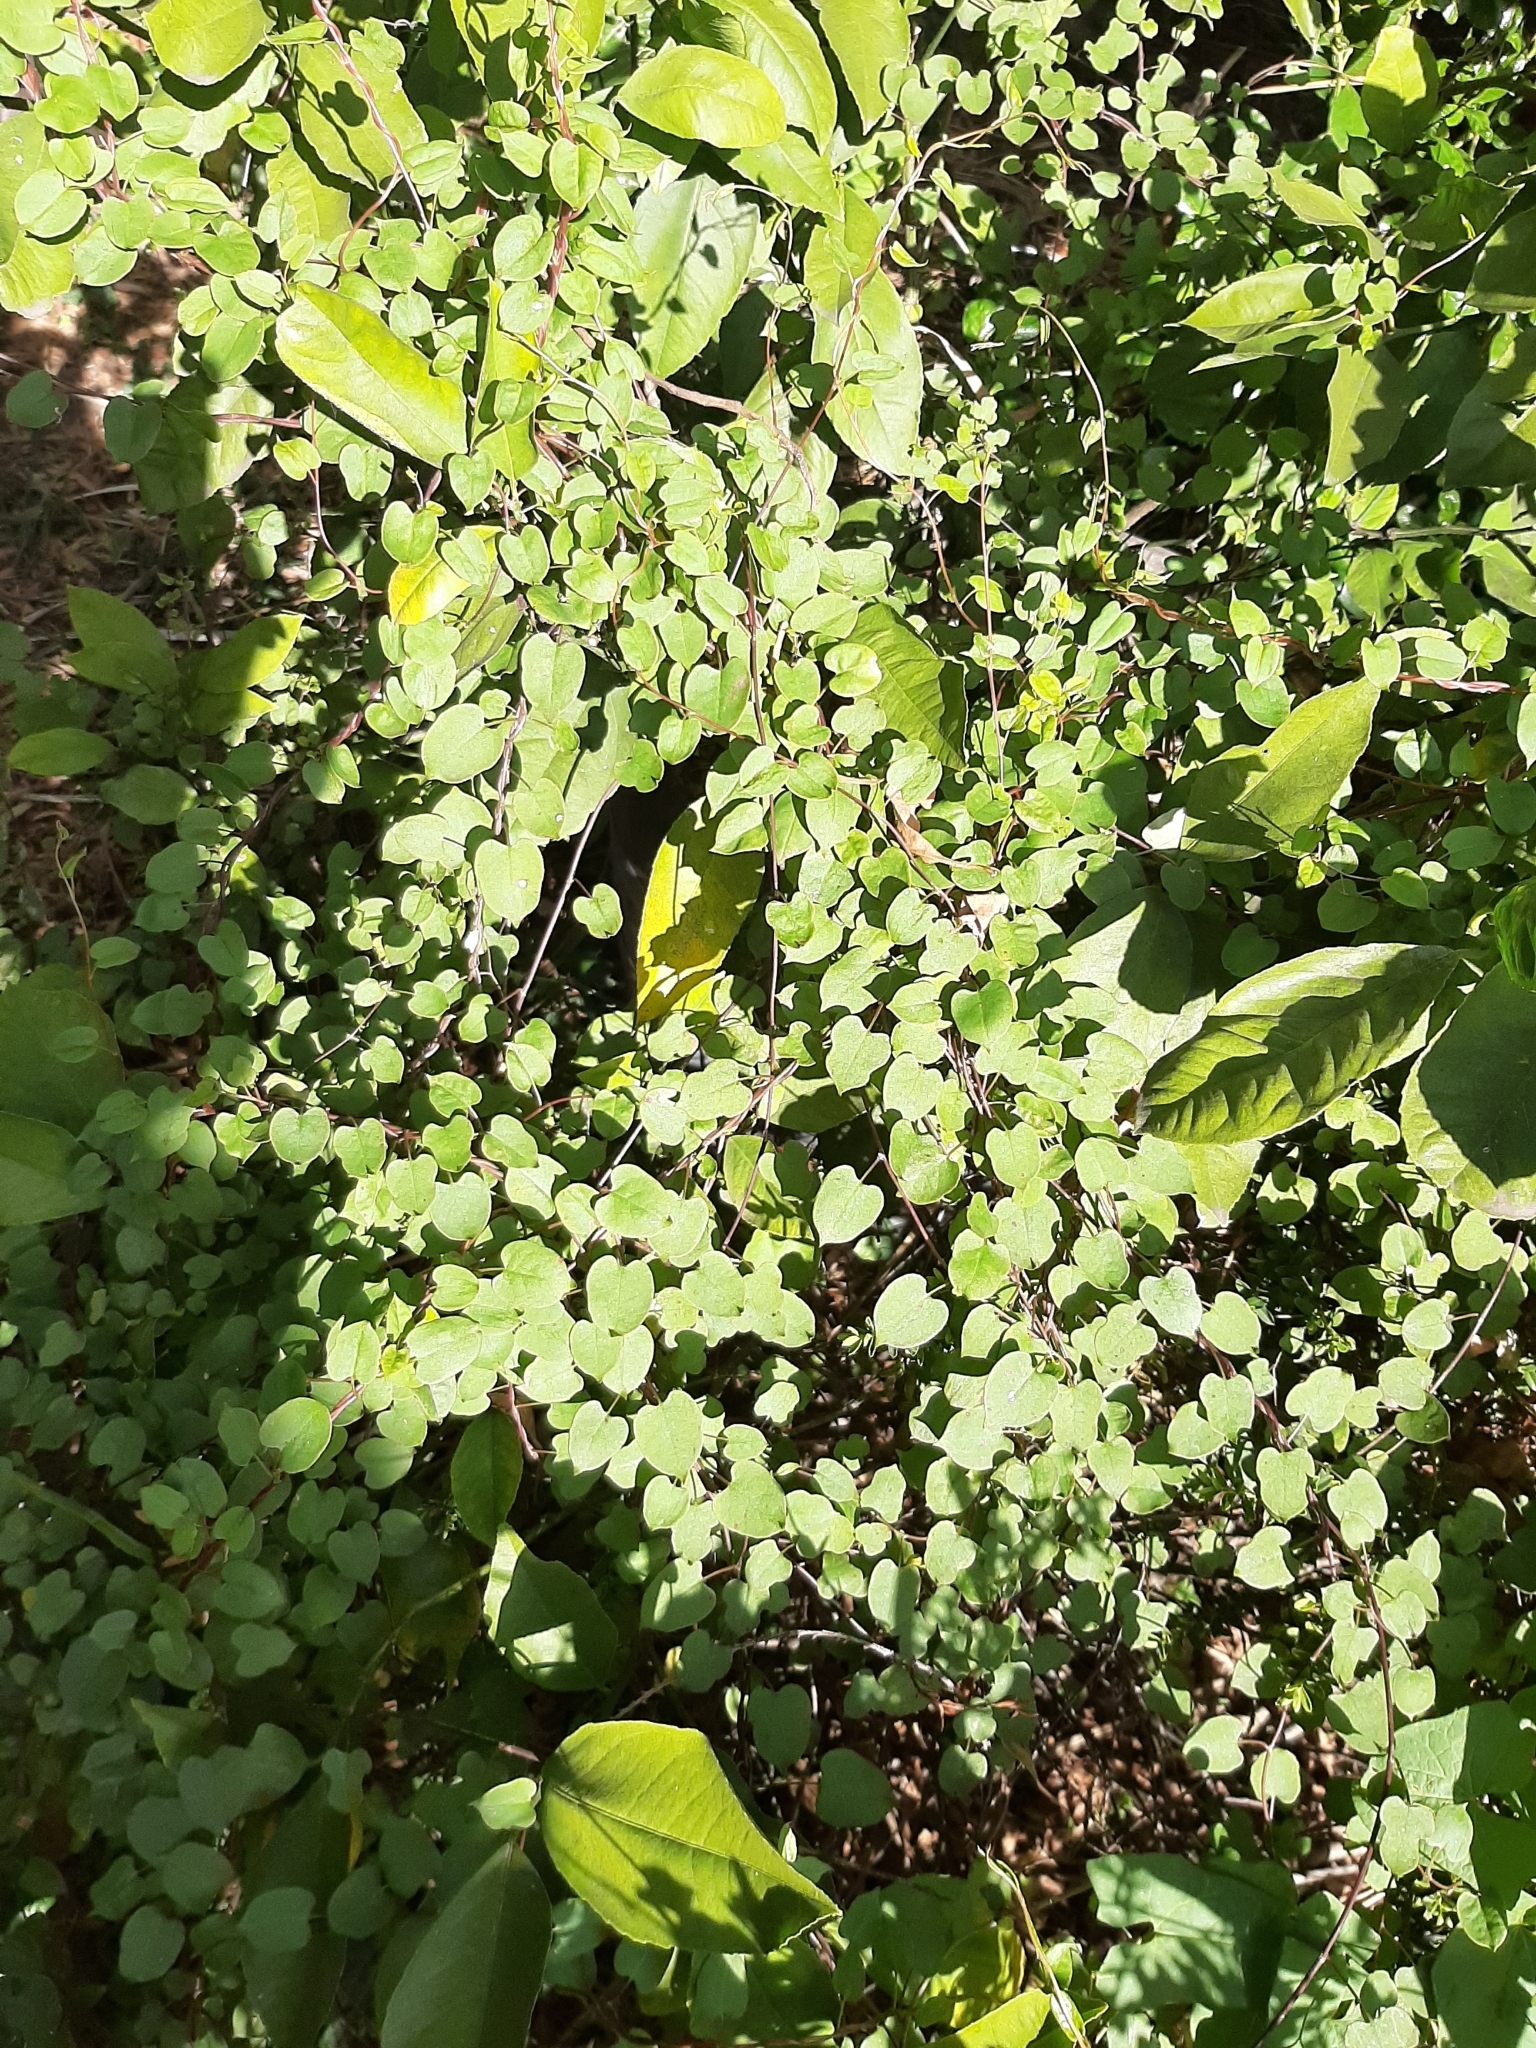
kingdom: Plantae
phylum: Tracheophyta
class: Magnoliopsida
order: Caryophyllales
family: Polygonaceae
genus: Muehlenbeckia
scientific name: Muehlenbeckia australis
